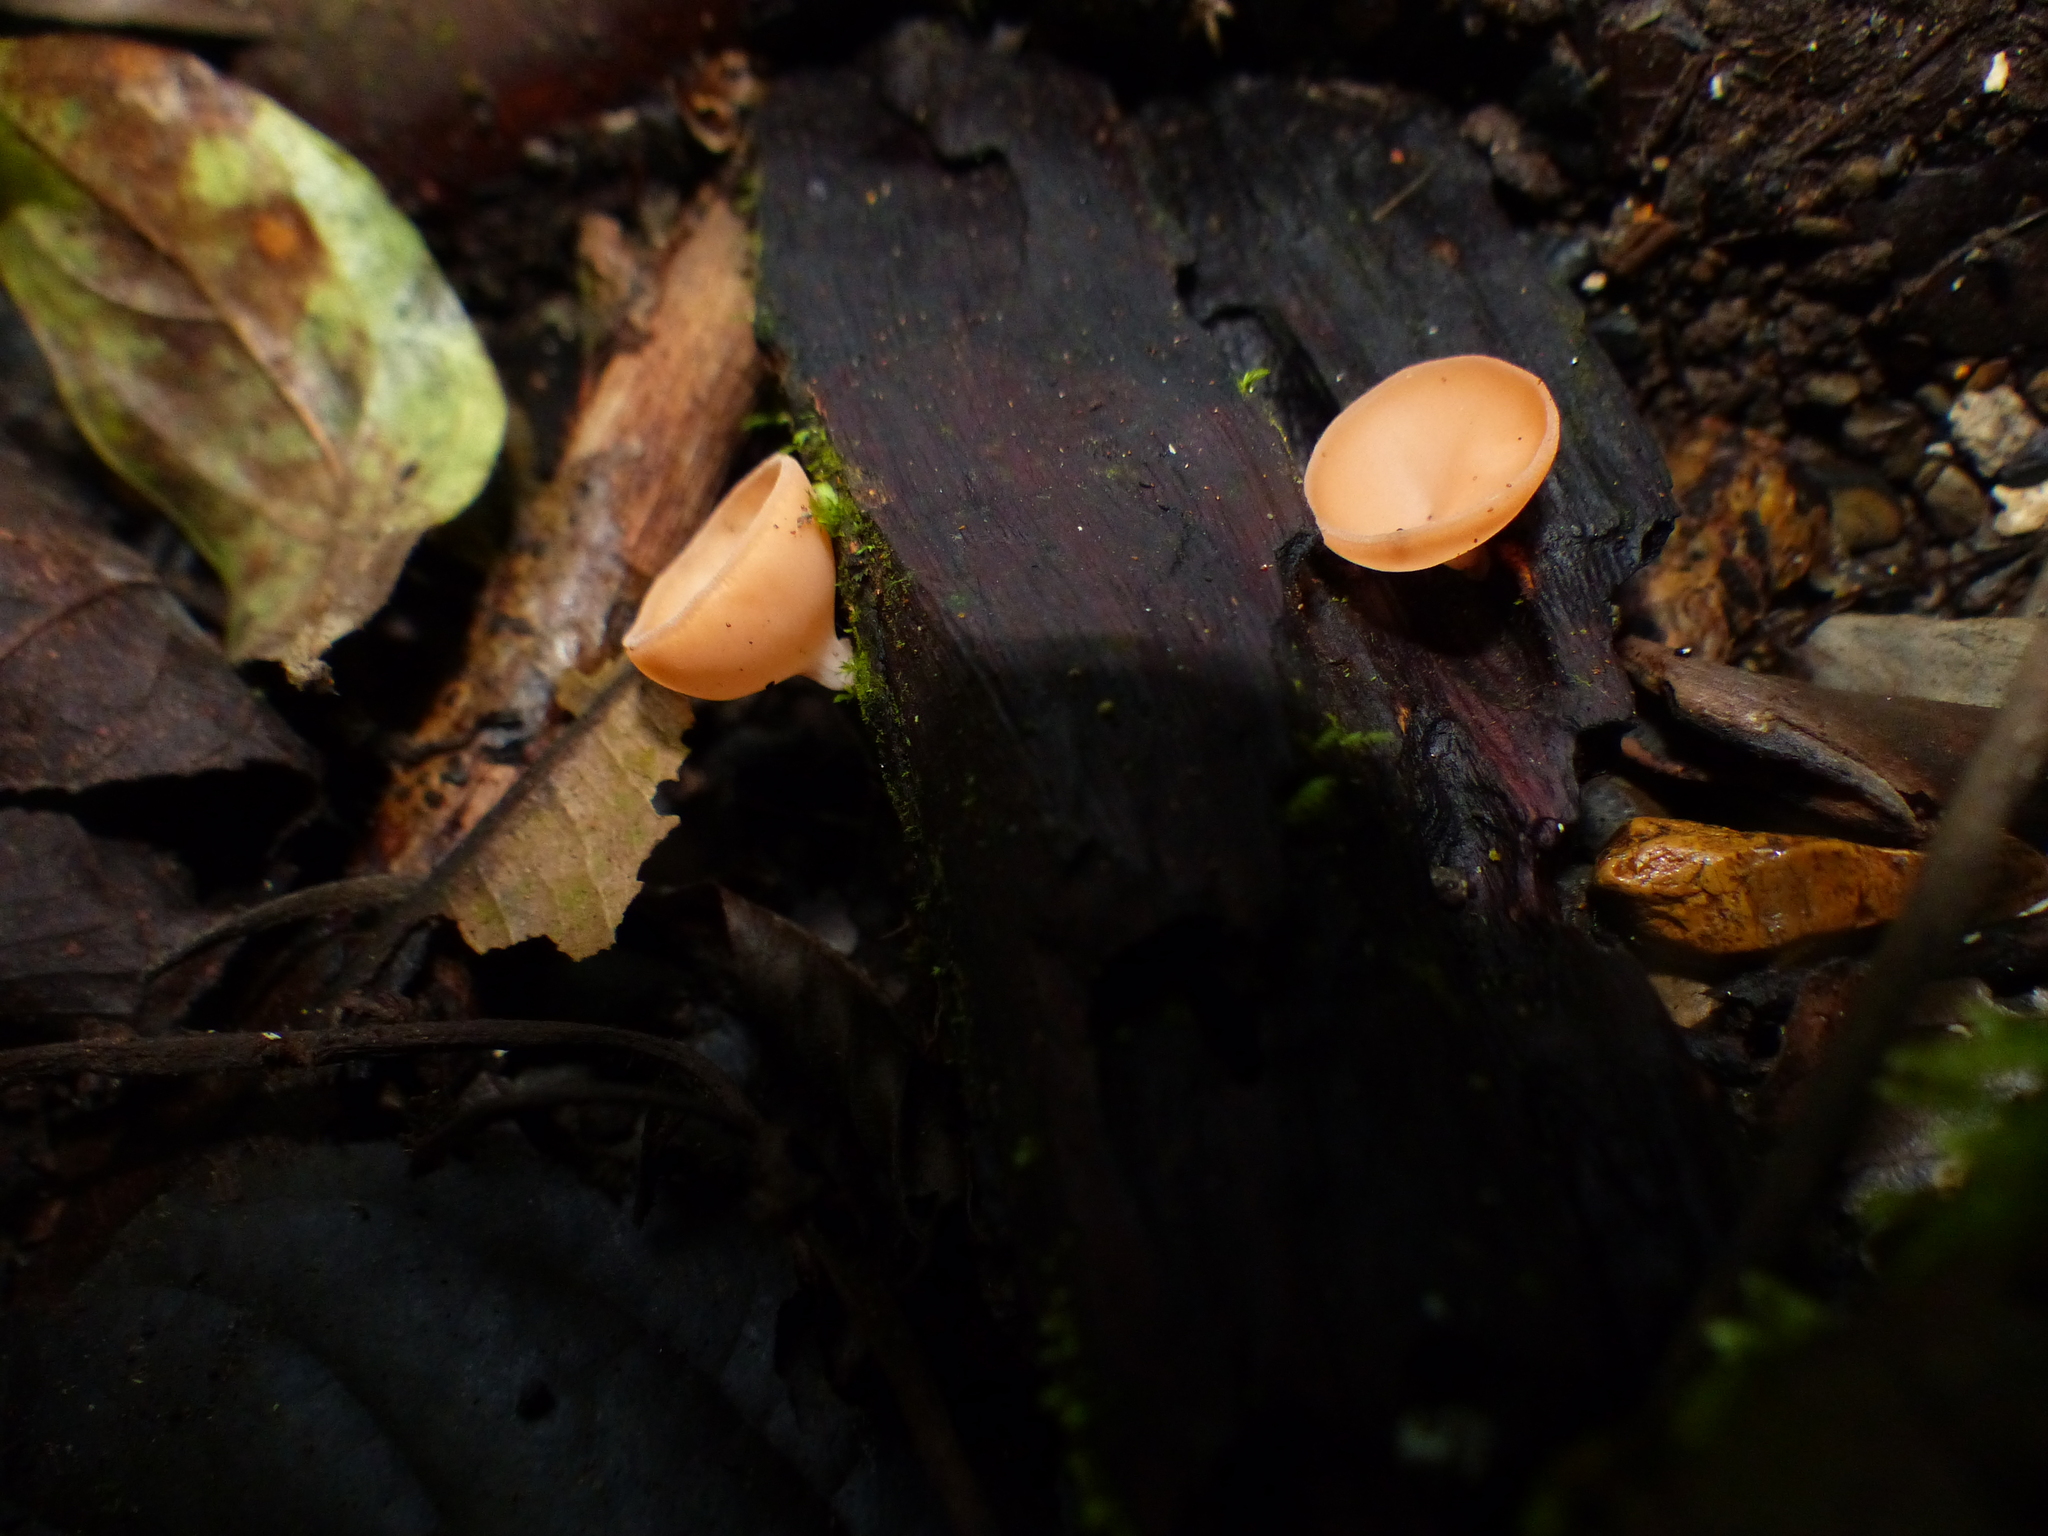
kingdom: Fungi
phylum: Ascomycota
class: Pezizomycetes
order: Pezizales
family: Sarcoscyphaceae
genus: Cookeina
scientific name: Cookeina speciosa
